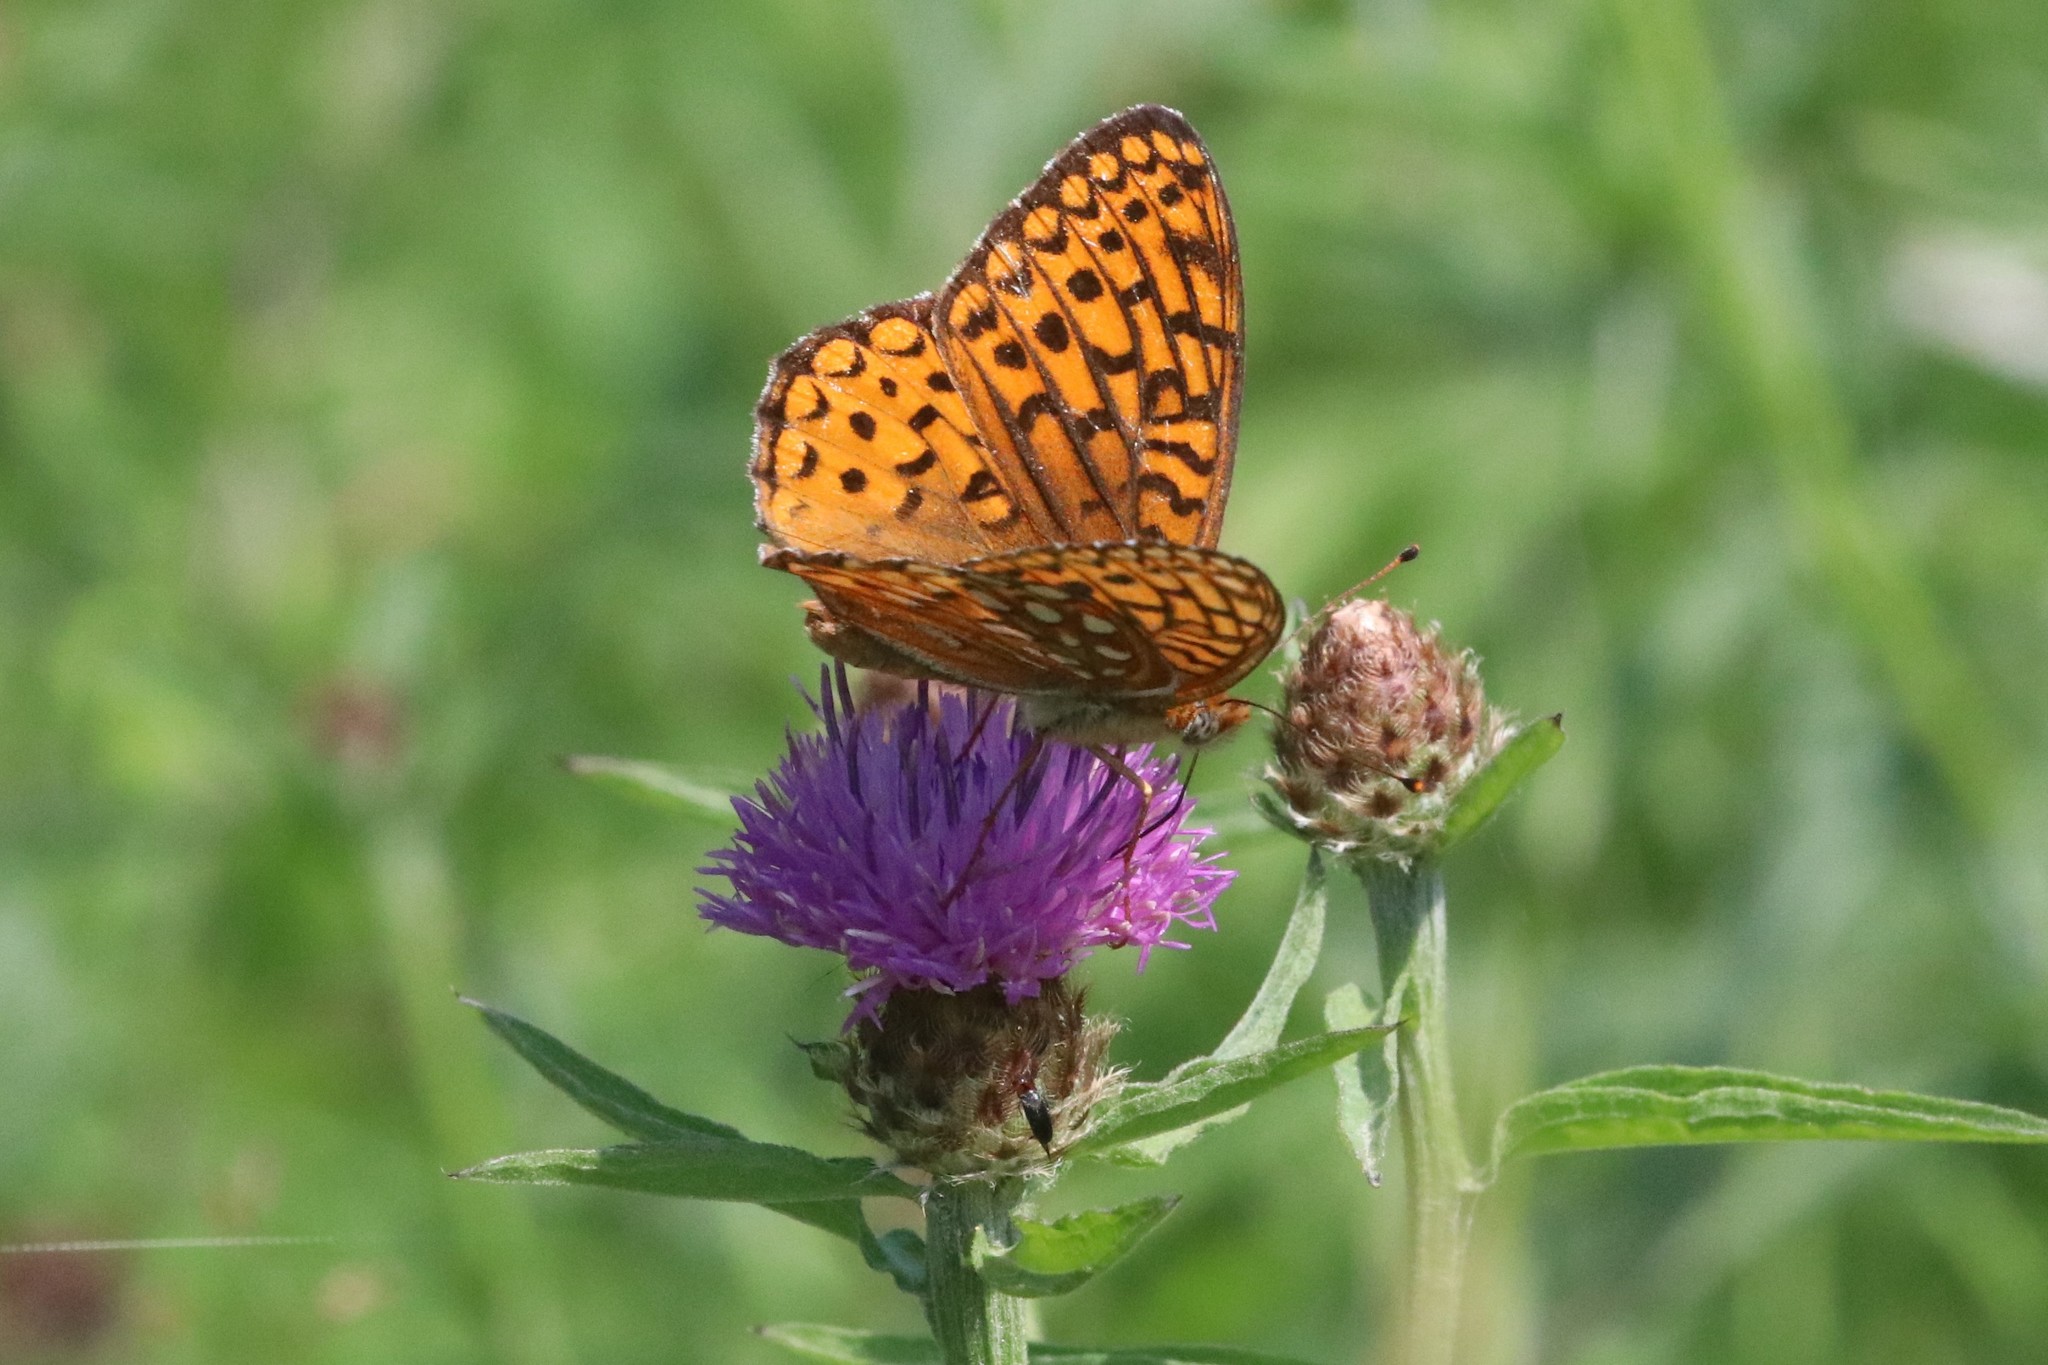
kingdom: Animalia
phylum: Arthropoda
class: Insecta
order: Lepidoptera
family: Nymphalidae
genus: Speyeria
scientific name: Speyeria atlantis
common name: Atlantis fritillary
